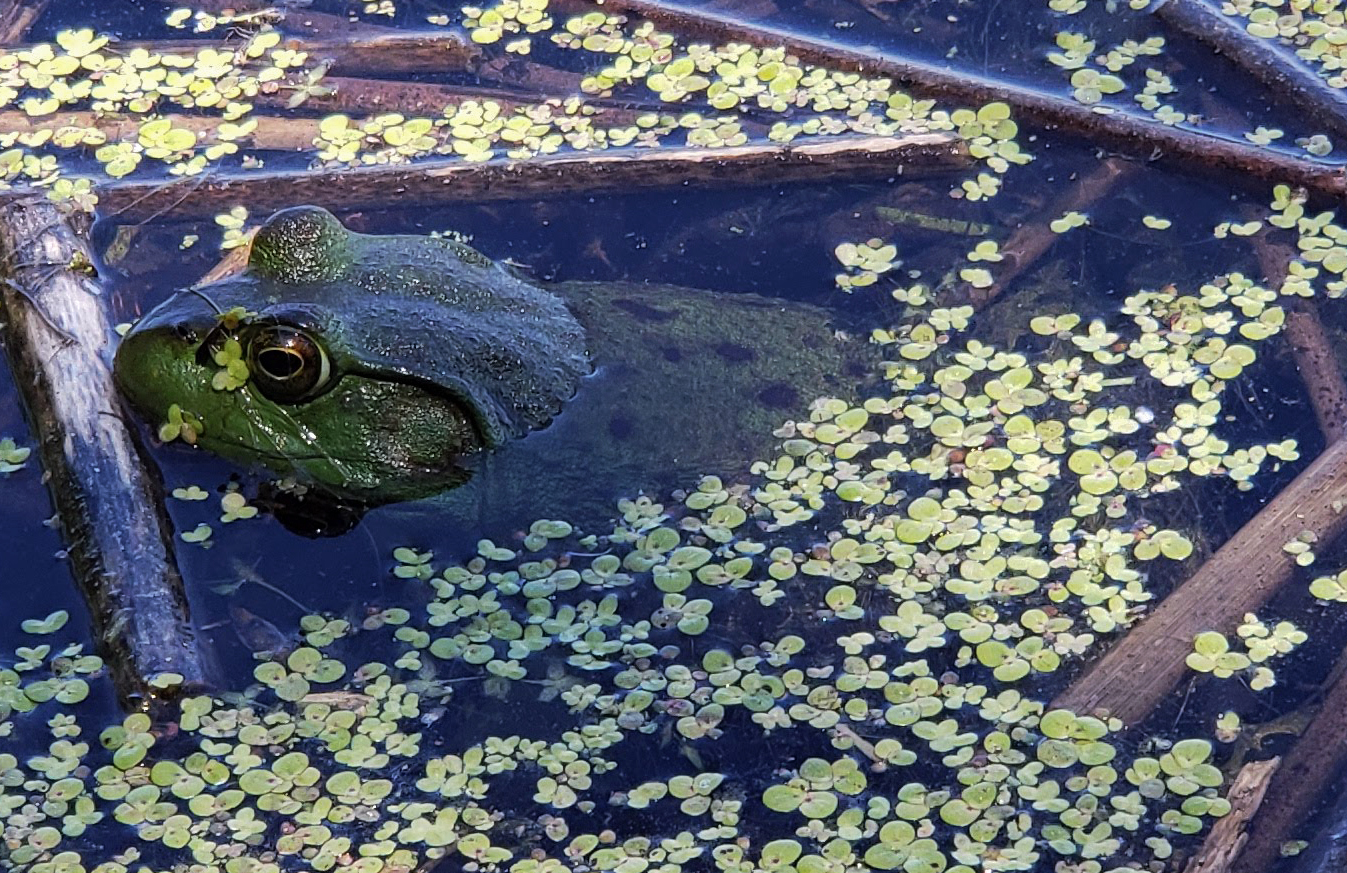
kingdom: Animalia
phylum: Chordata
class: Amphibia
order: Anura
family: Ranidae
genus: Lithobates
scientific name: Lithobates catesbeianus
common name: American bullfrog
